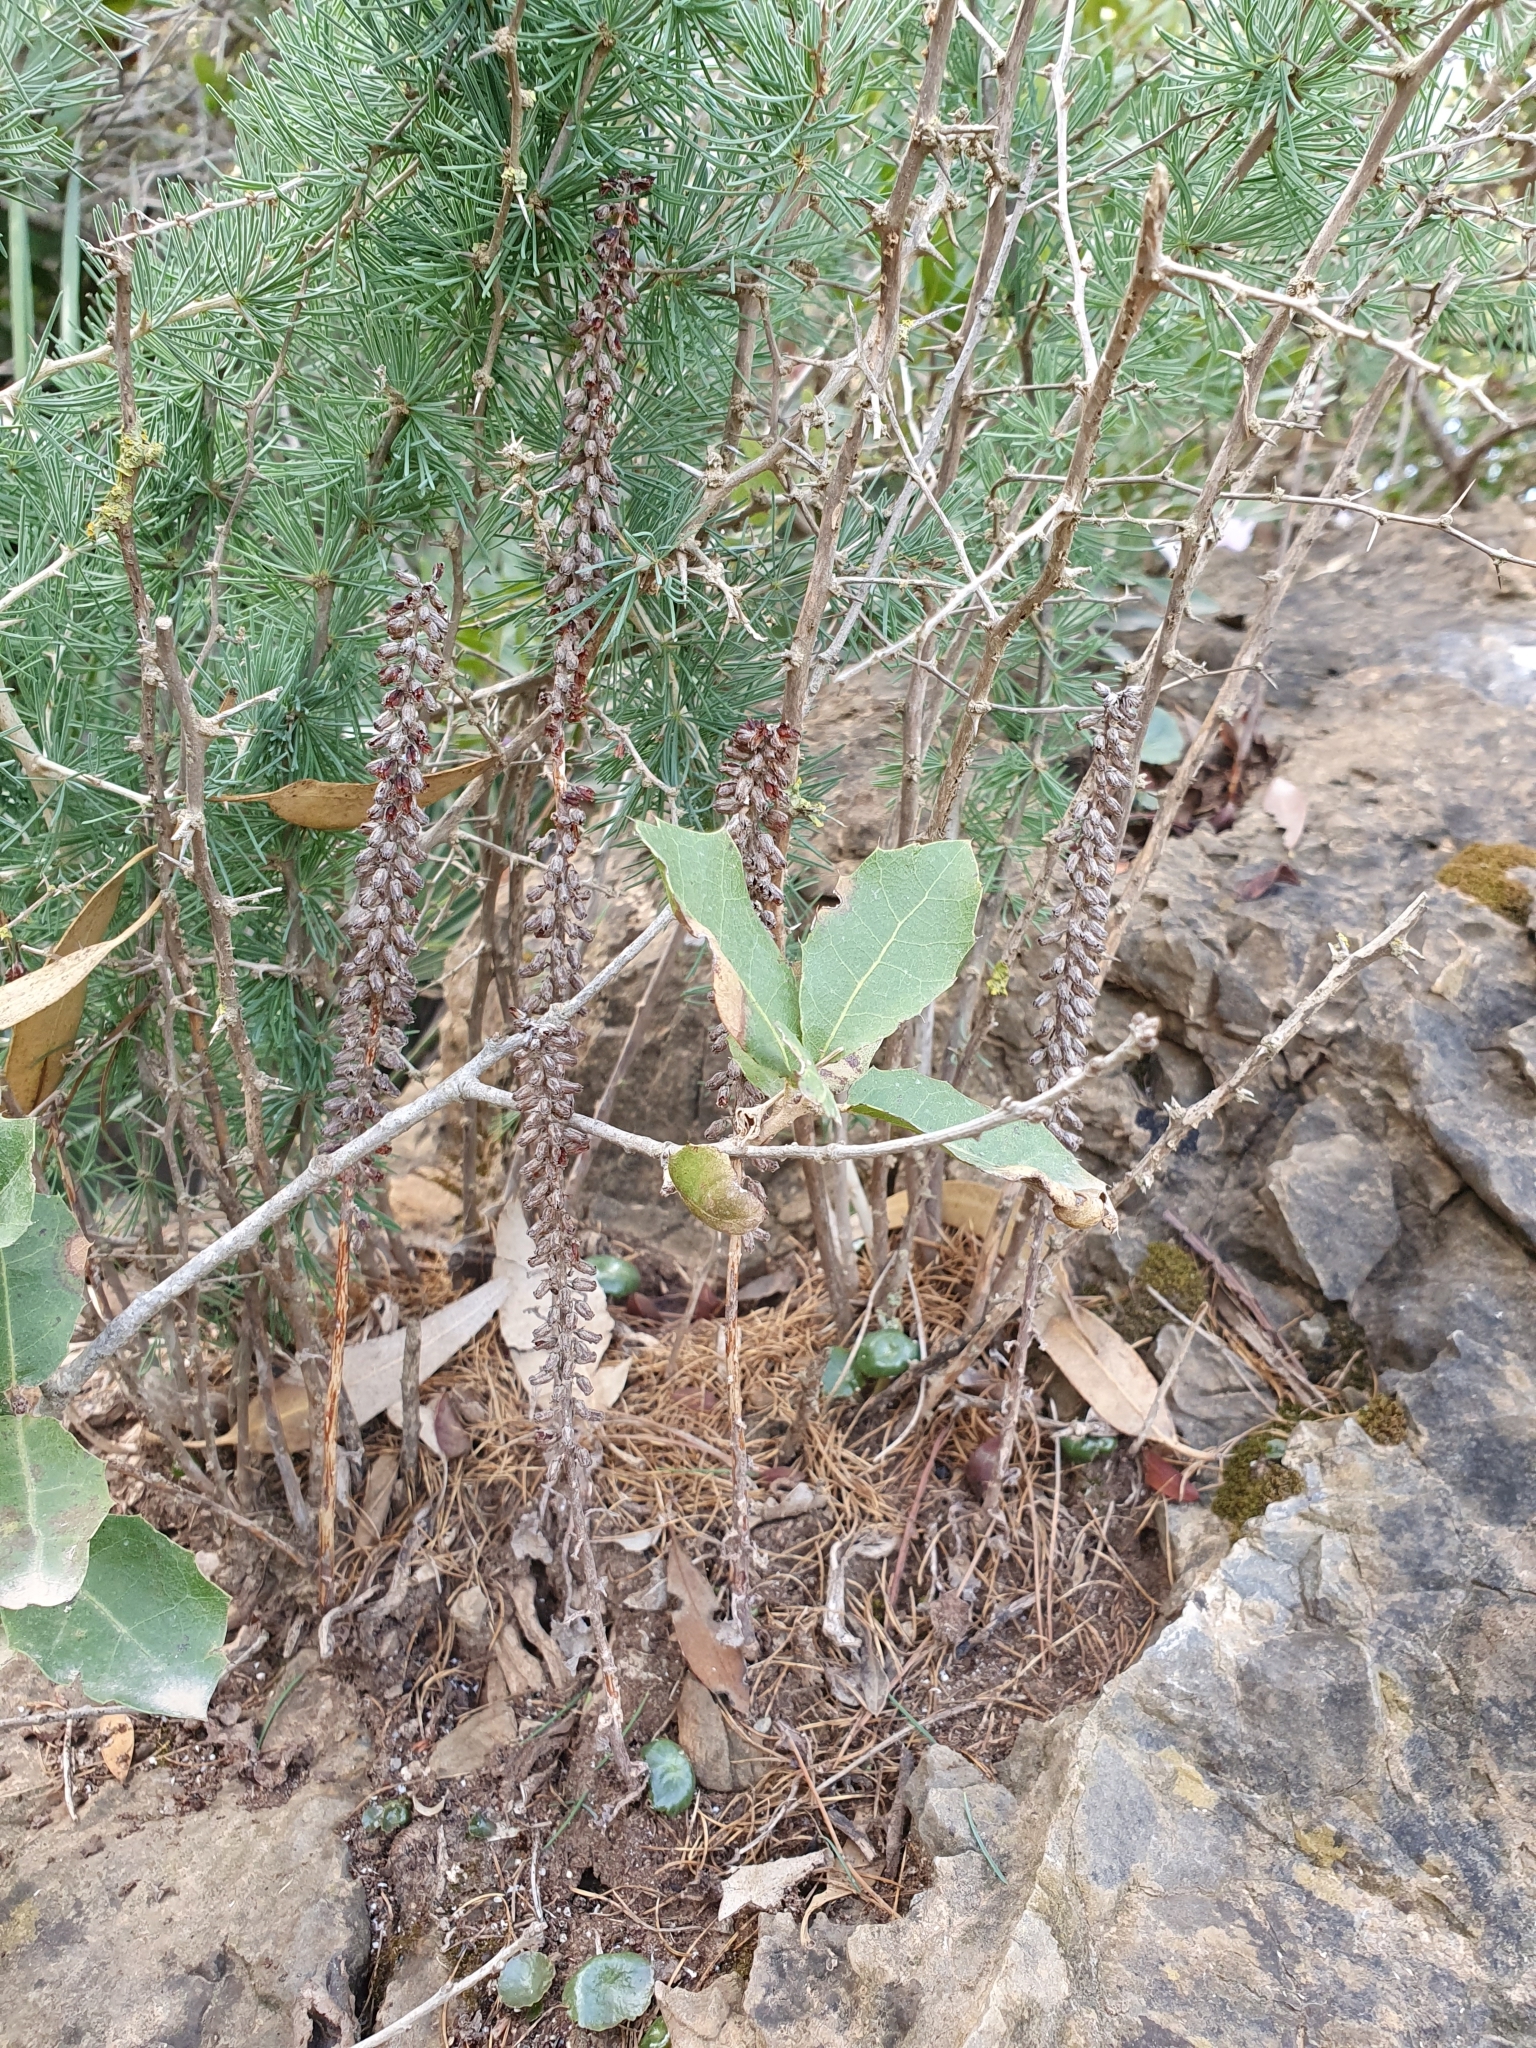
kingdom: Plantae
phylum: Tracheophyta
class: Magnoliopsida
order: Saxifragales
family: Crassulaceae
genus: Umbilicus
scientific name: Umbilicus rupestris
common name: Navelwort
